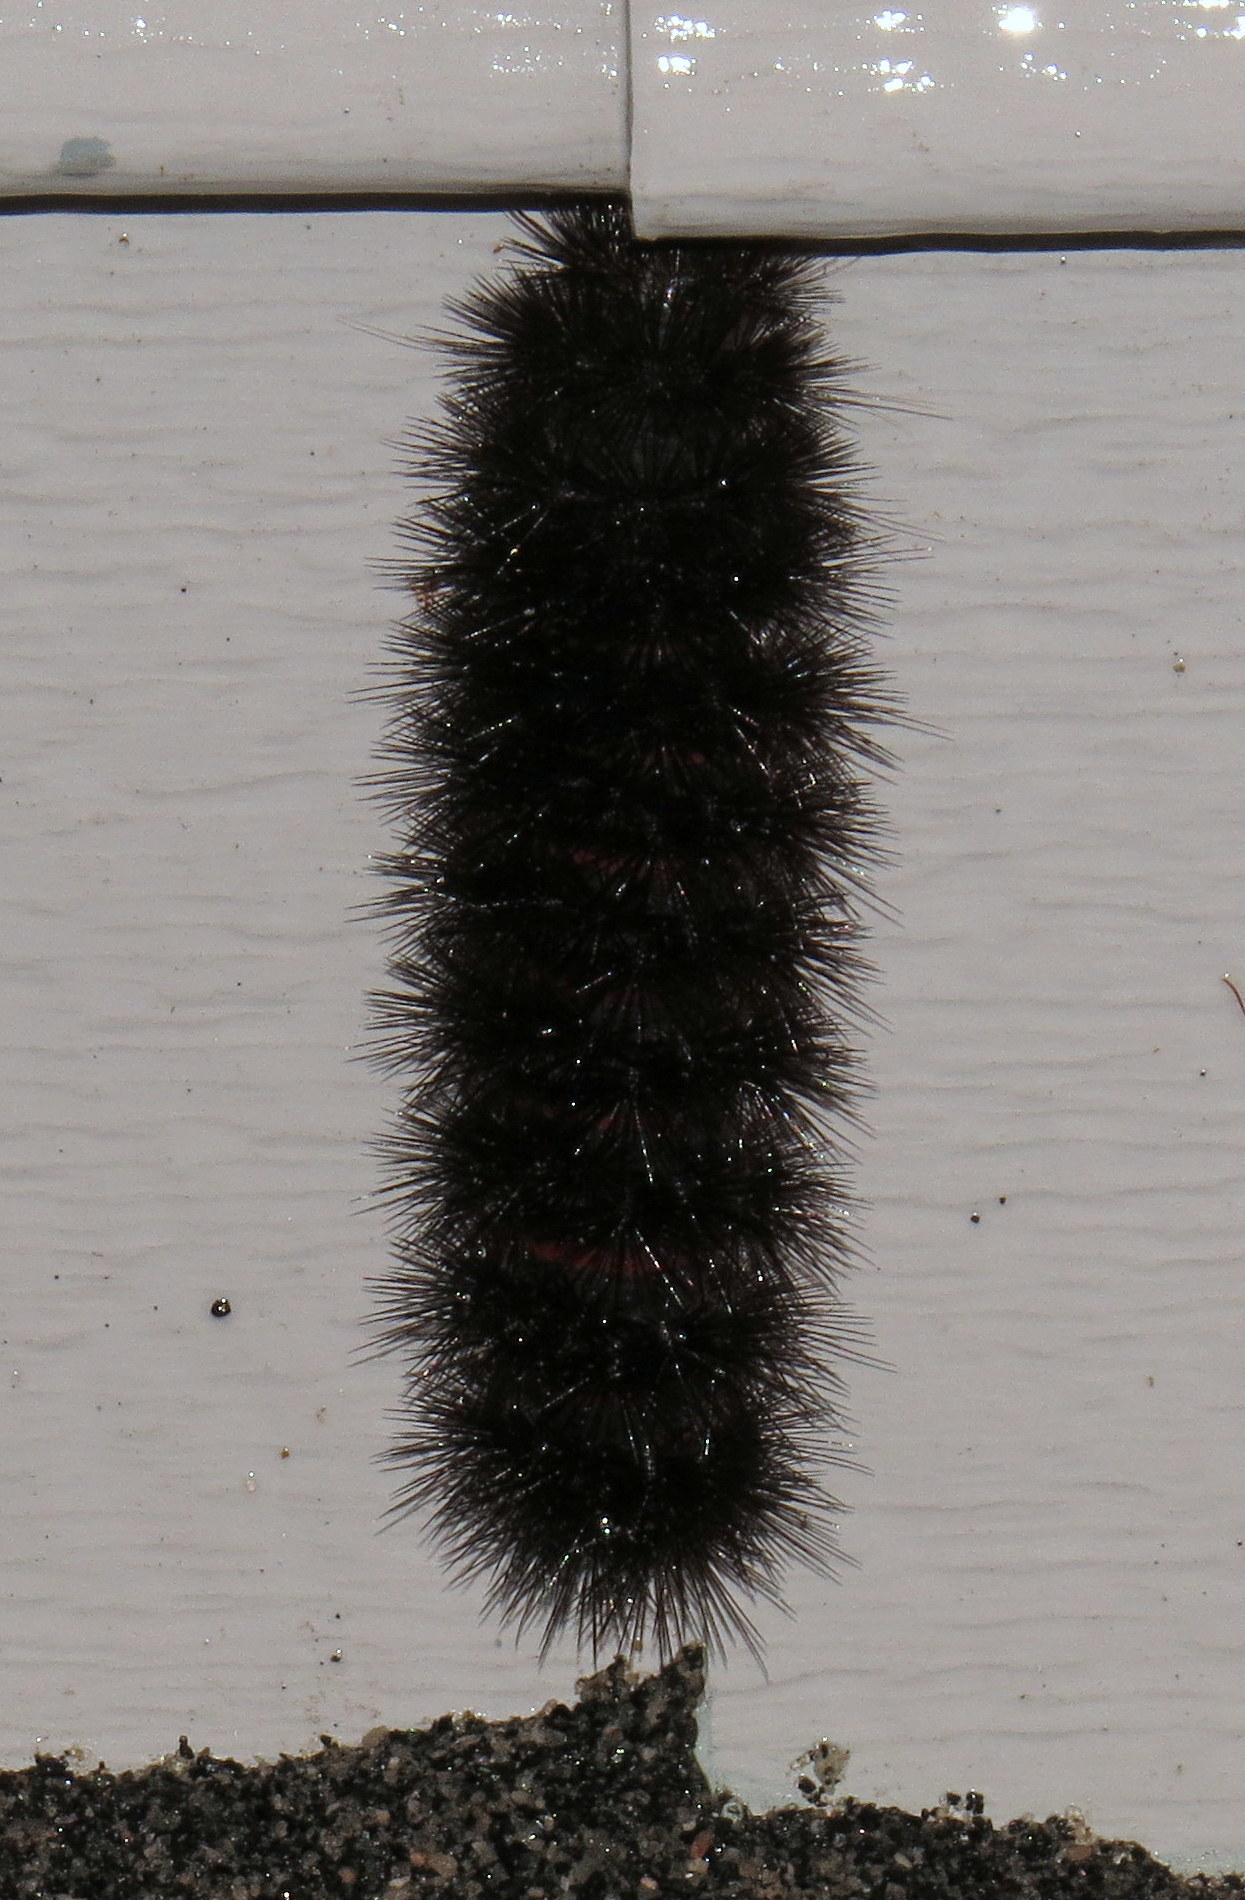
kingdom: Animalia
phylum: Arthropoda
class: Insecta
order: Lepidoptera
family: Erebidae
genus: Hypercompe
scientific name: Hypercompe scribonia
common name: Giant leopard moth
